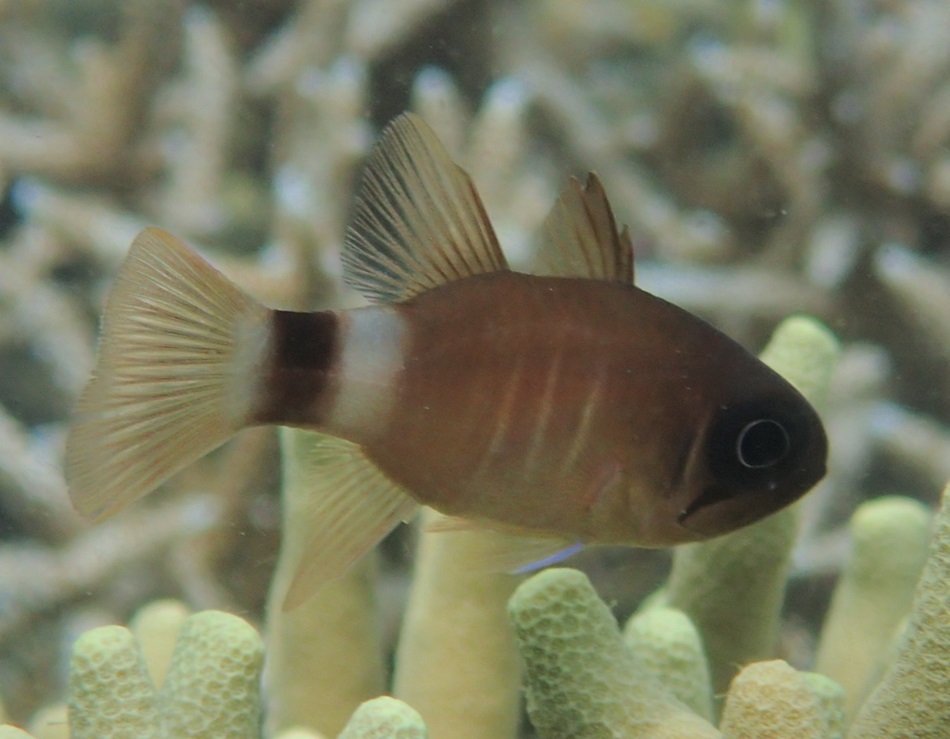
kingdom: Animalia
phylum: Chordata
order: Perciformes
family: Apogonidae
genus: Nectamia
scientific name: Nectamia bandanensis
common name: Bigeye cardinalfish
